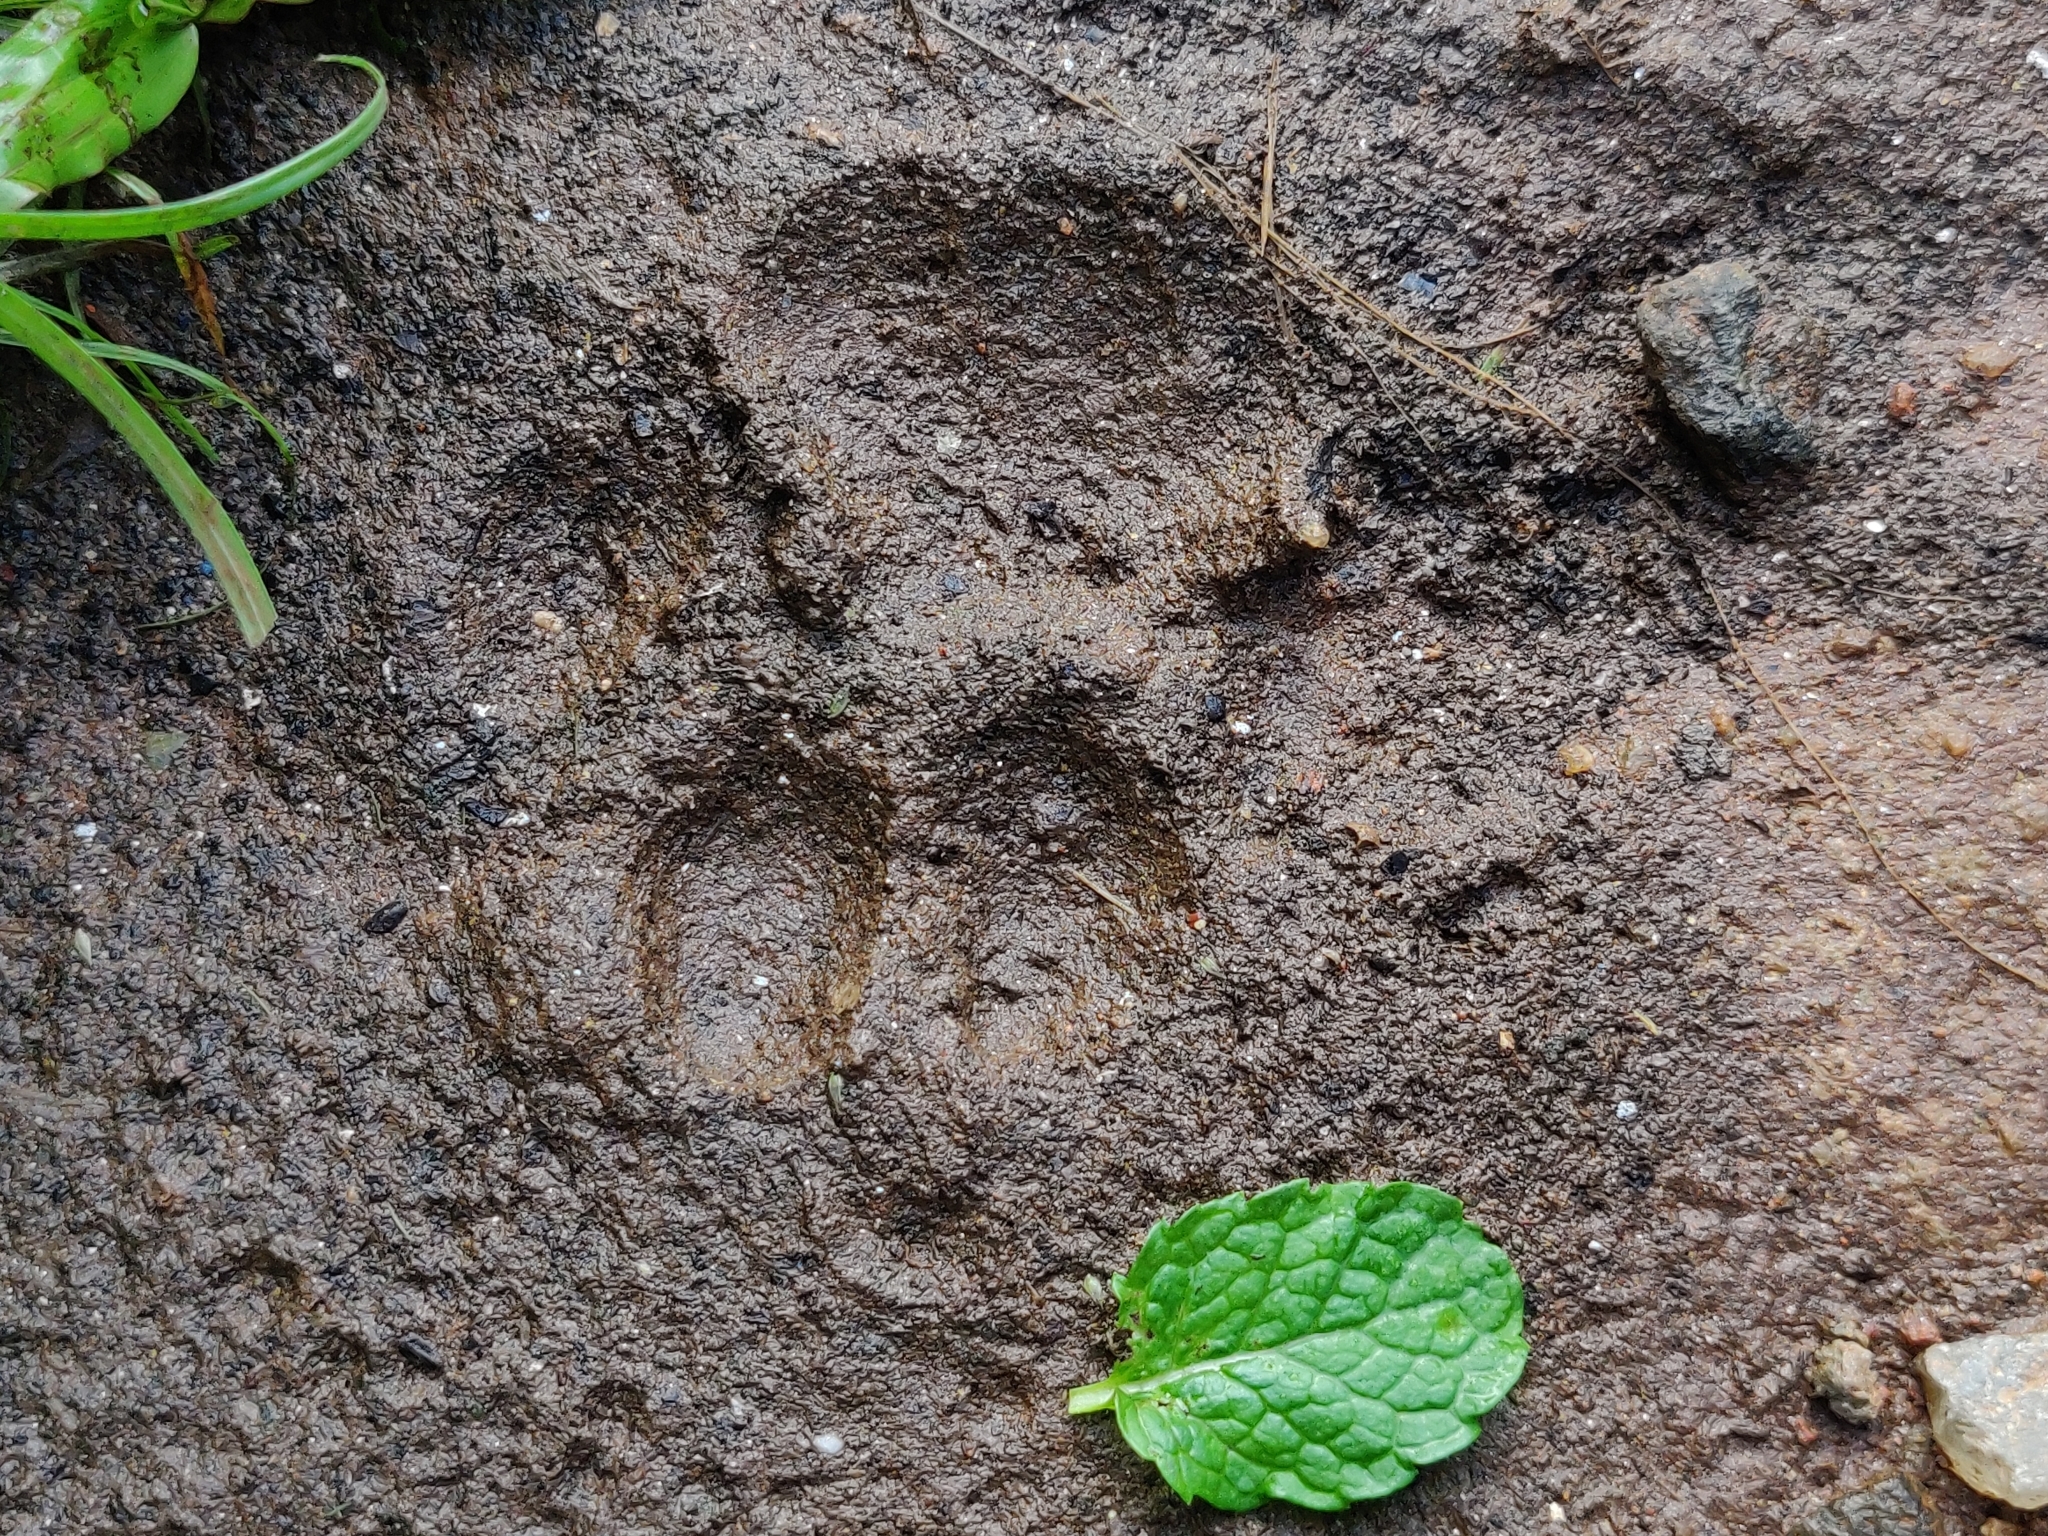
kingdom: Animalia
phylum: Chordata
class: Mammalia
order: Carnivora
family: Felidae
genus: Panthera
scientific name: Panthera pardus
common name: Leopard
